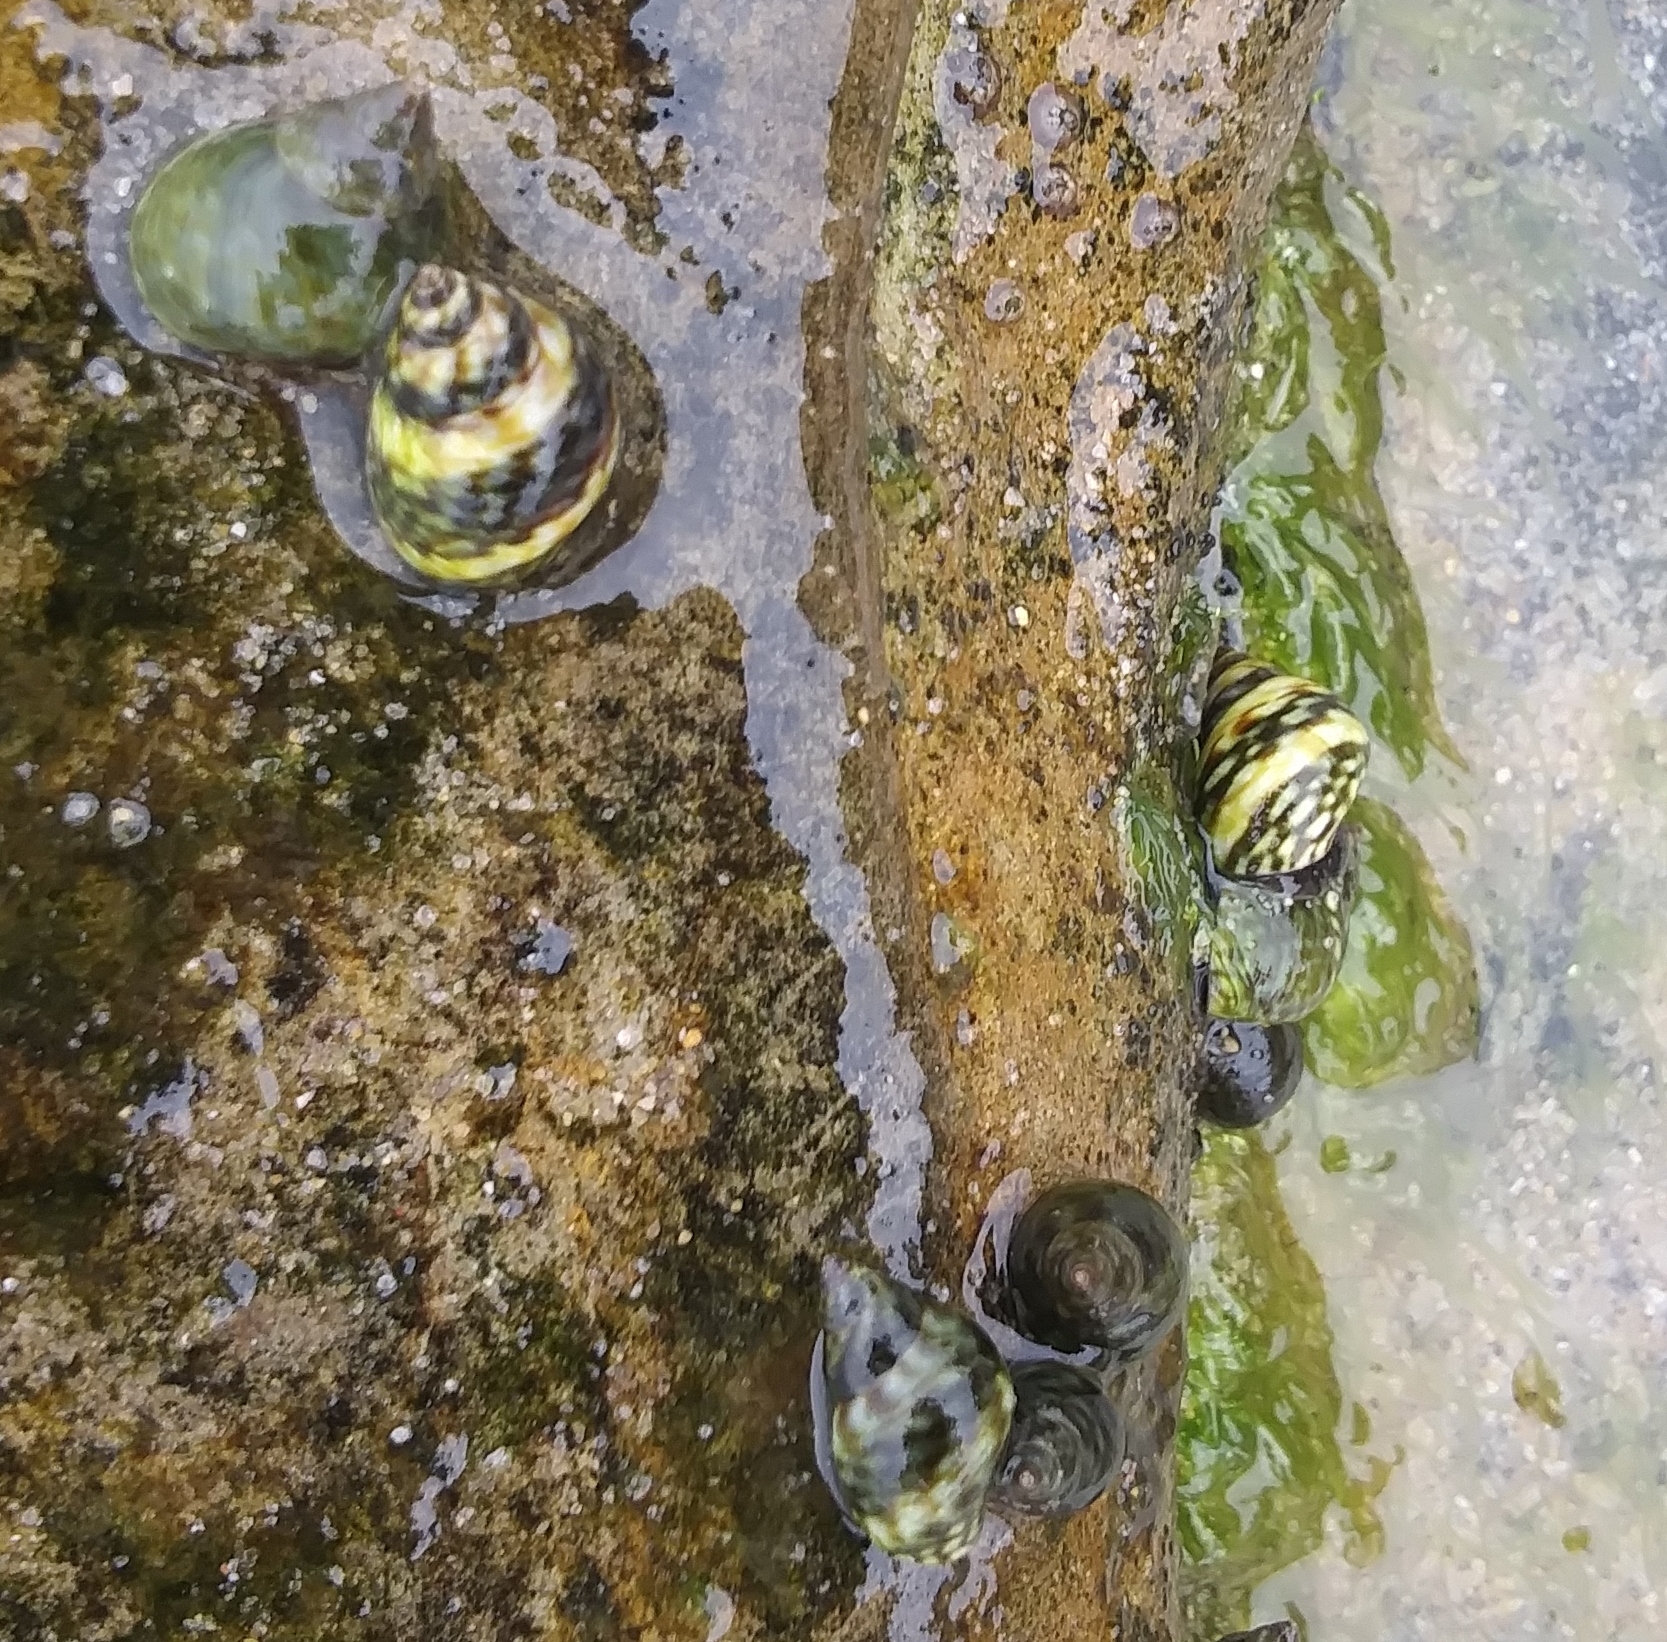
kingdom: Animalia
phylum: Mollusca
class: Gastropoda
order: Littorinimorpha
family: Littorinidae
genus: Littorina
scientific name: Littorina scutulata
